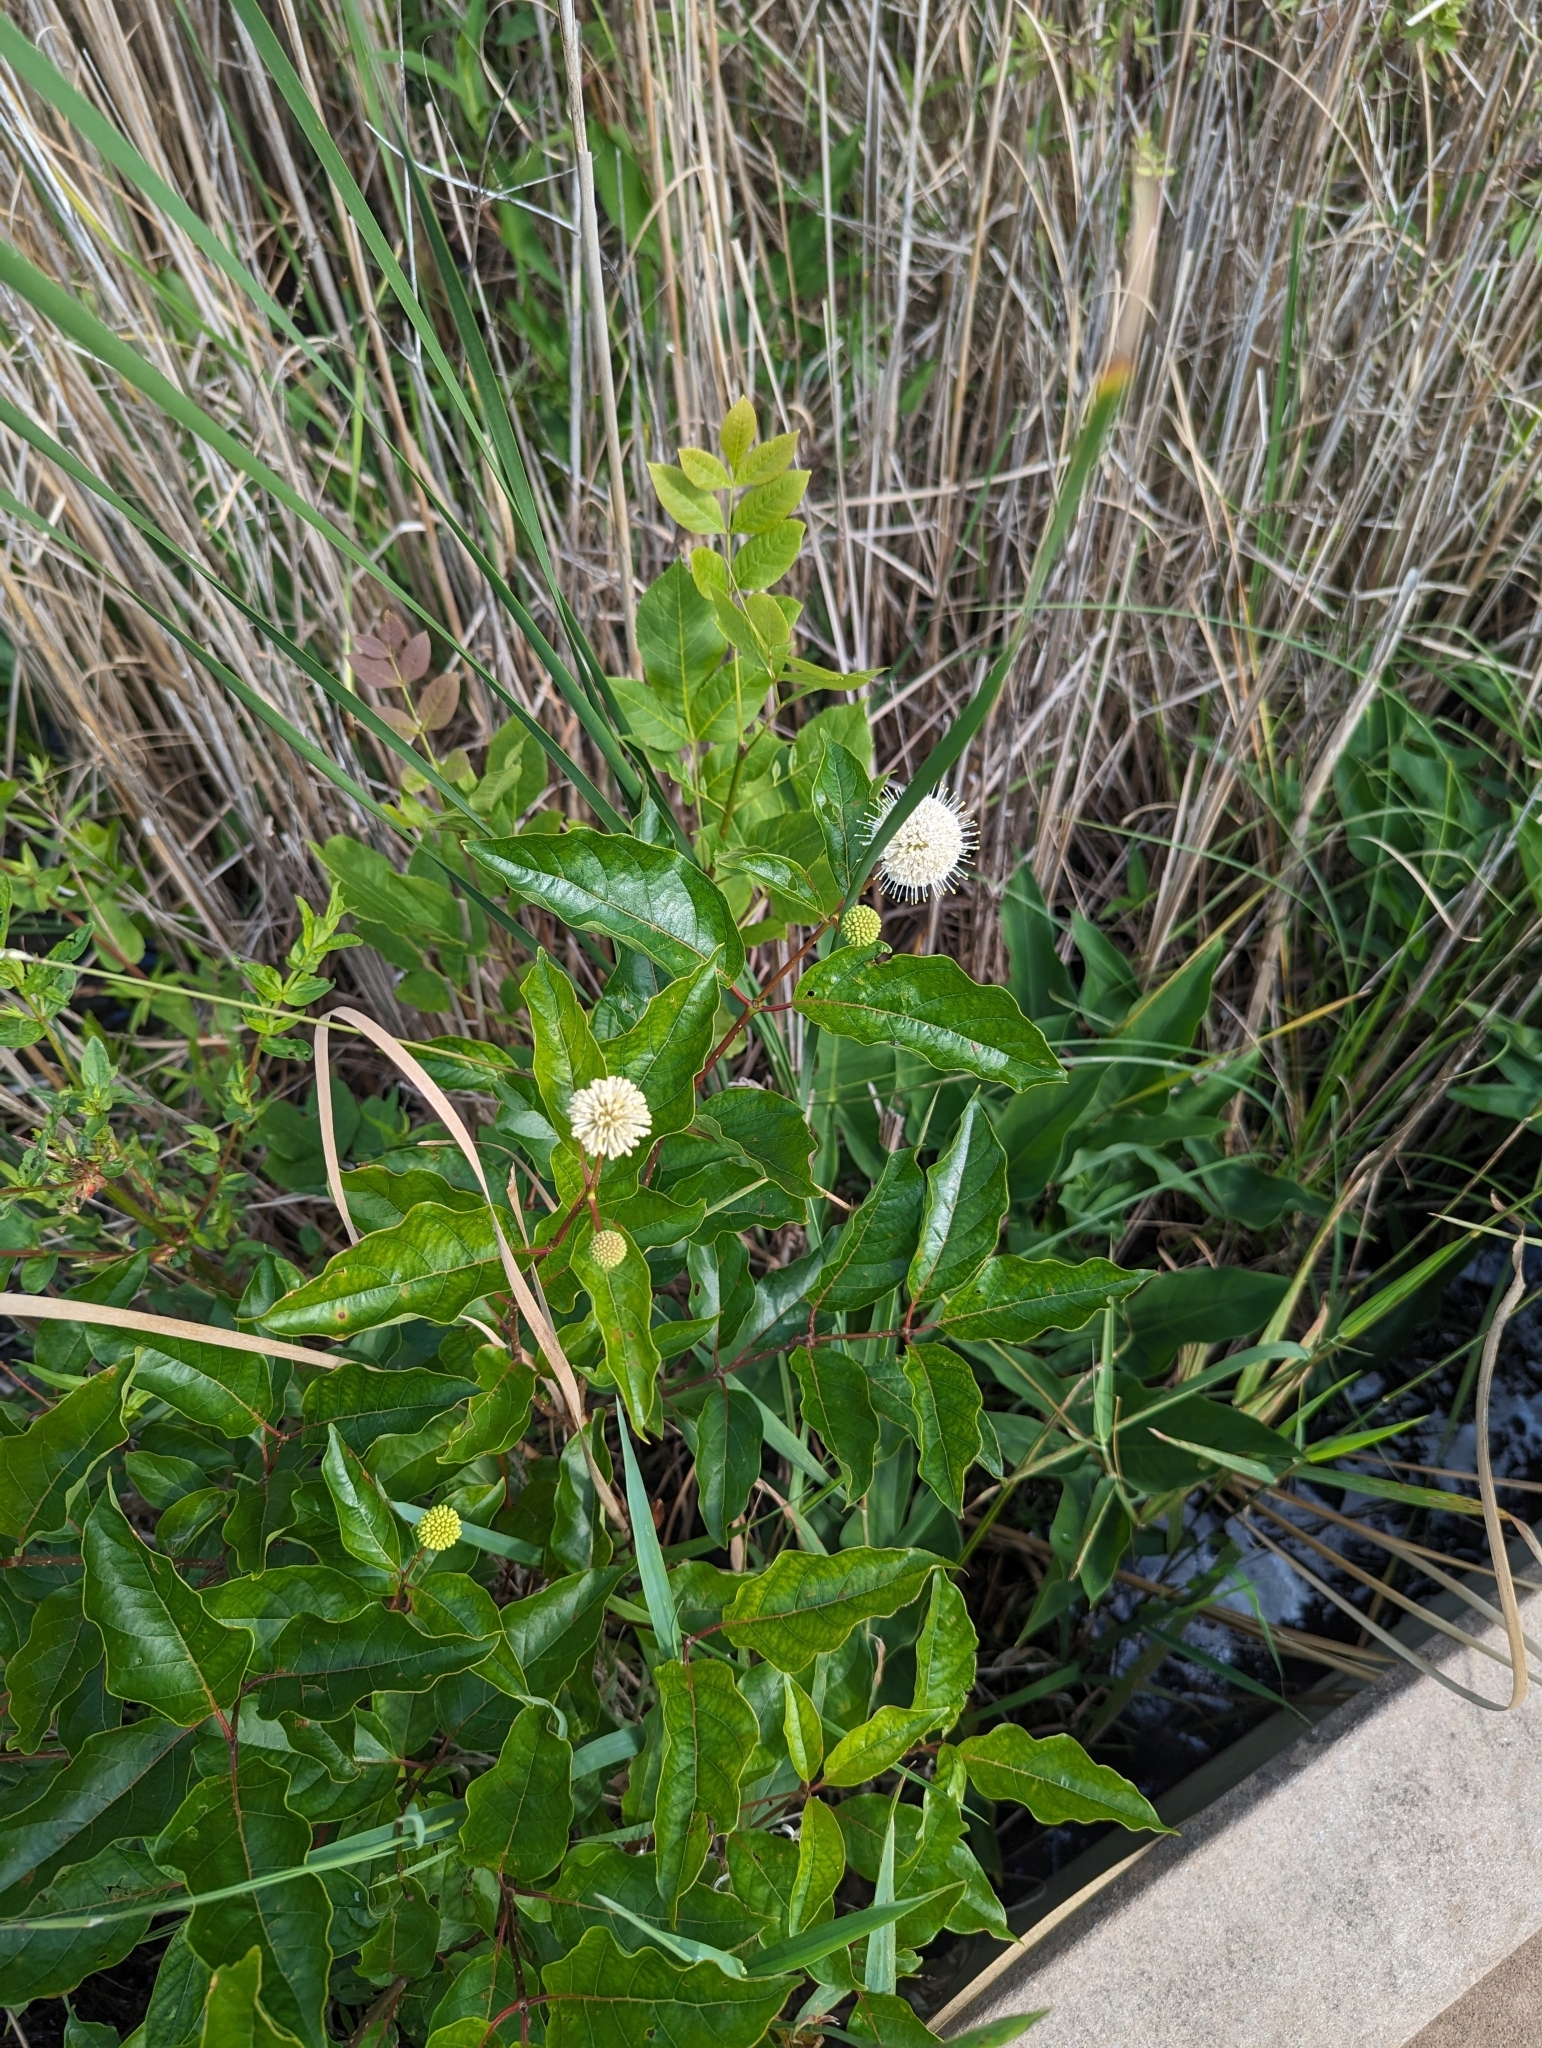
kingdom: Plantae
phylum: Tracheophyta
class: Magnoliopsida
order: Gentianales
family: Rubiaceae
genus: Cephalanthus
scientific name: Cephalanthus occidentalis
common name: Button-willow
